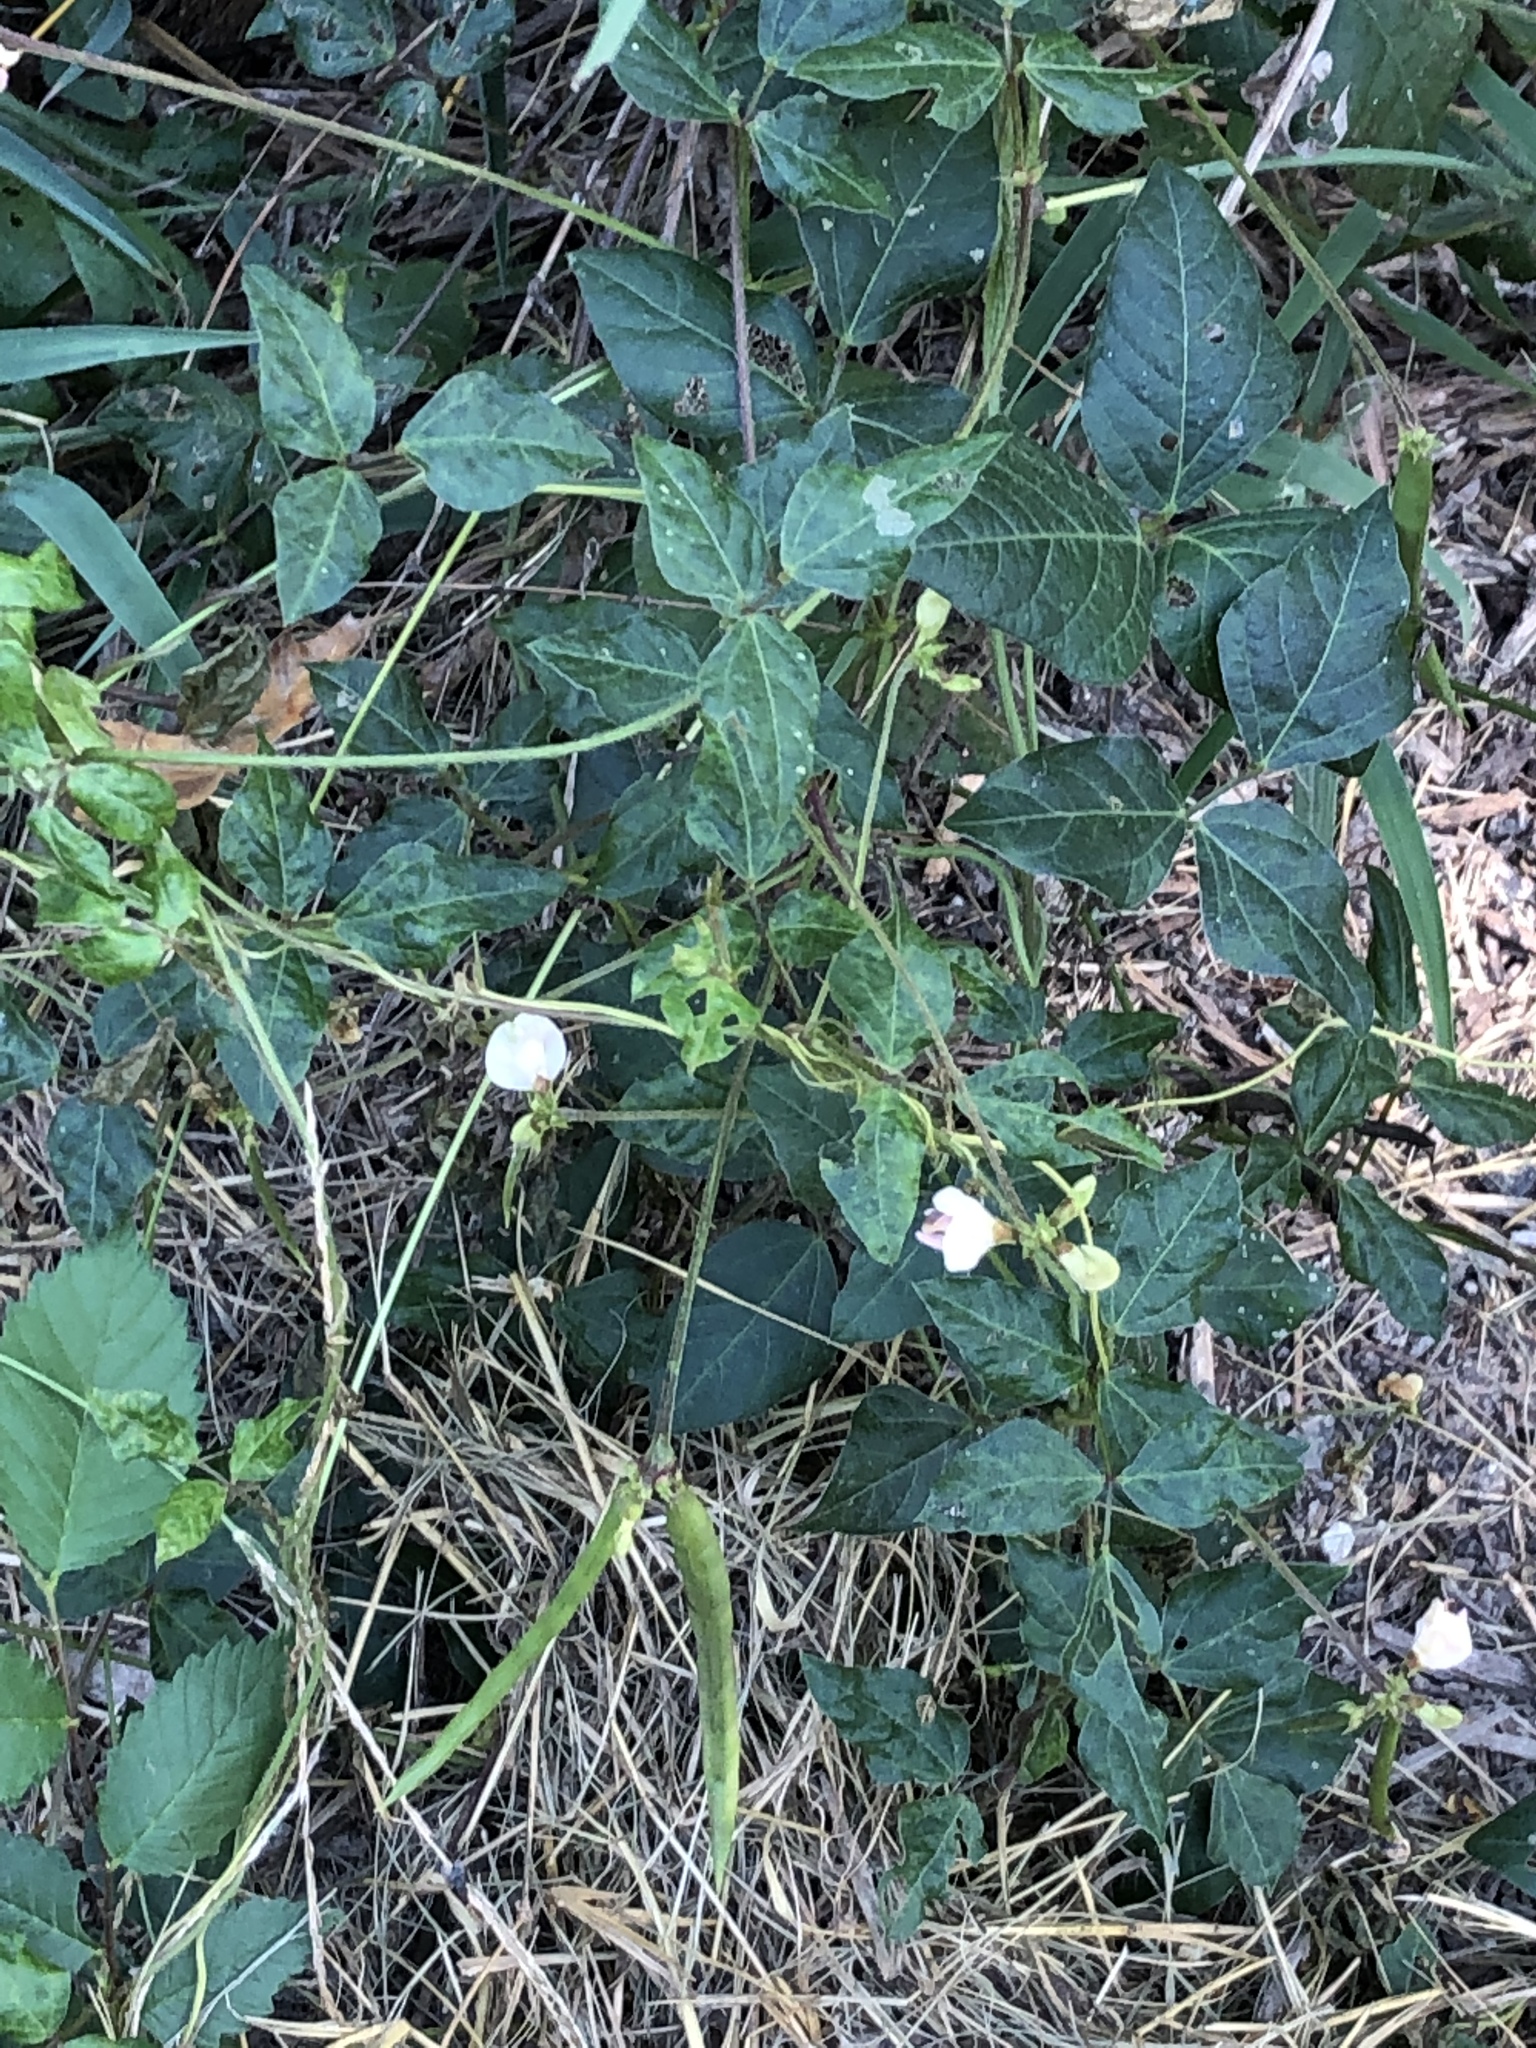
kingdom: Plantae
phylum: Tracheophyta
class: Magnoliopsida
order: Fabales
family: Fabaceae
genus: Strophostyles
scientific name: Strophostyles helvola
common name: Trailing wild bean
